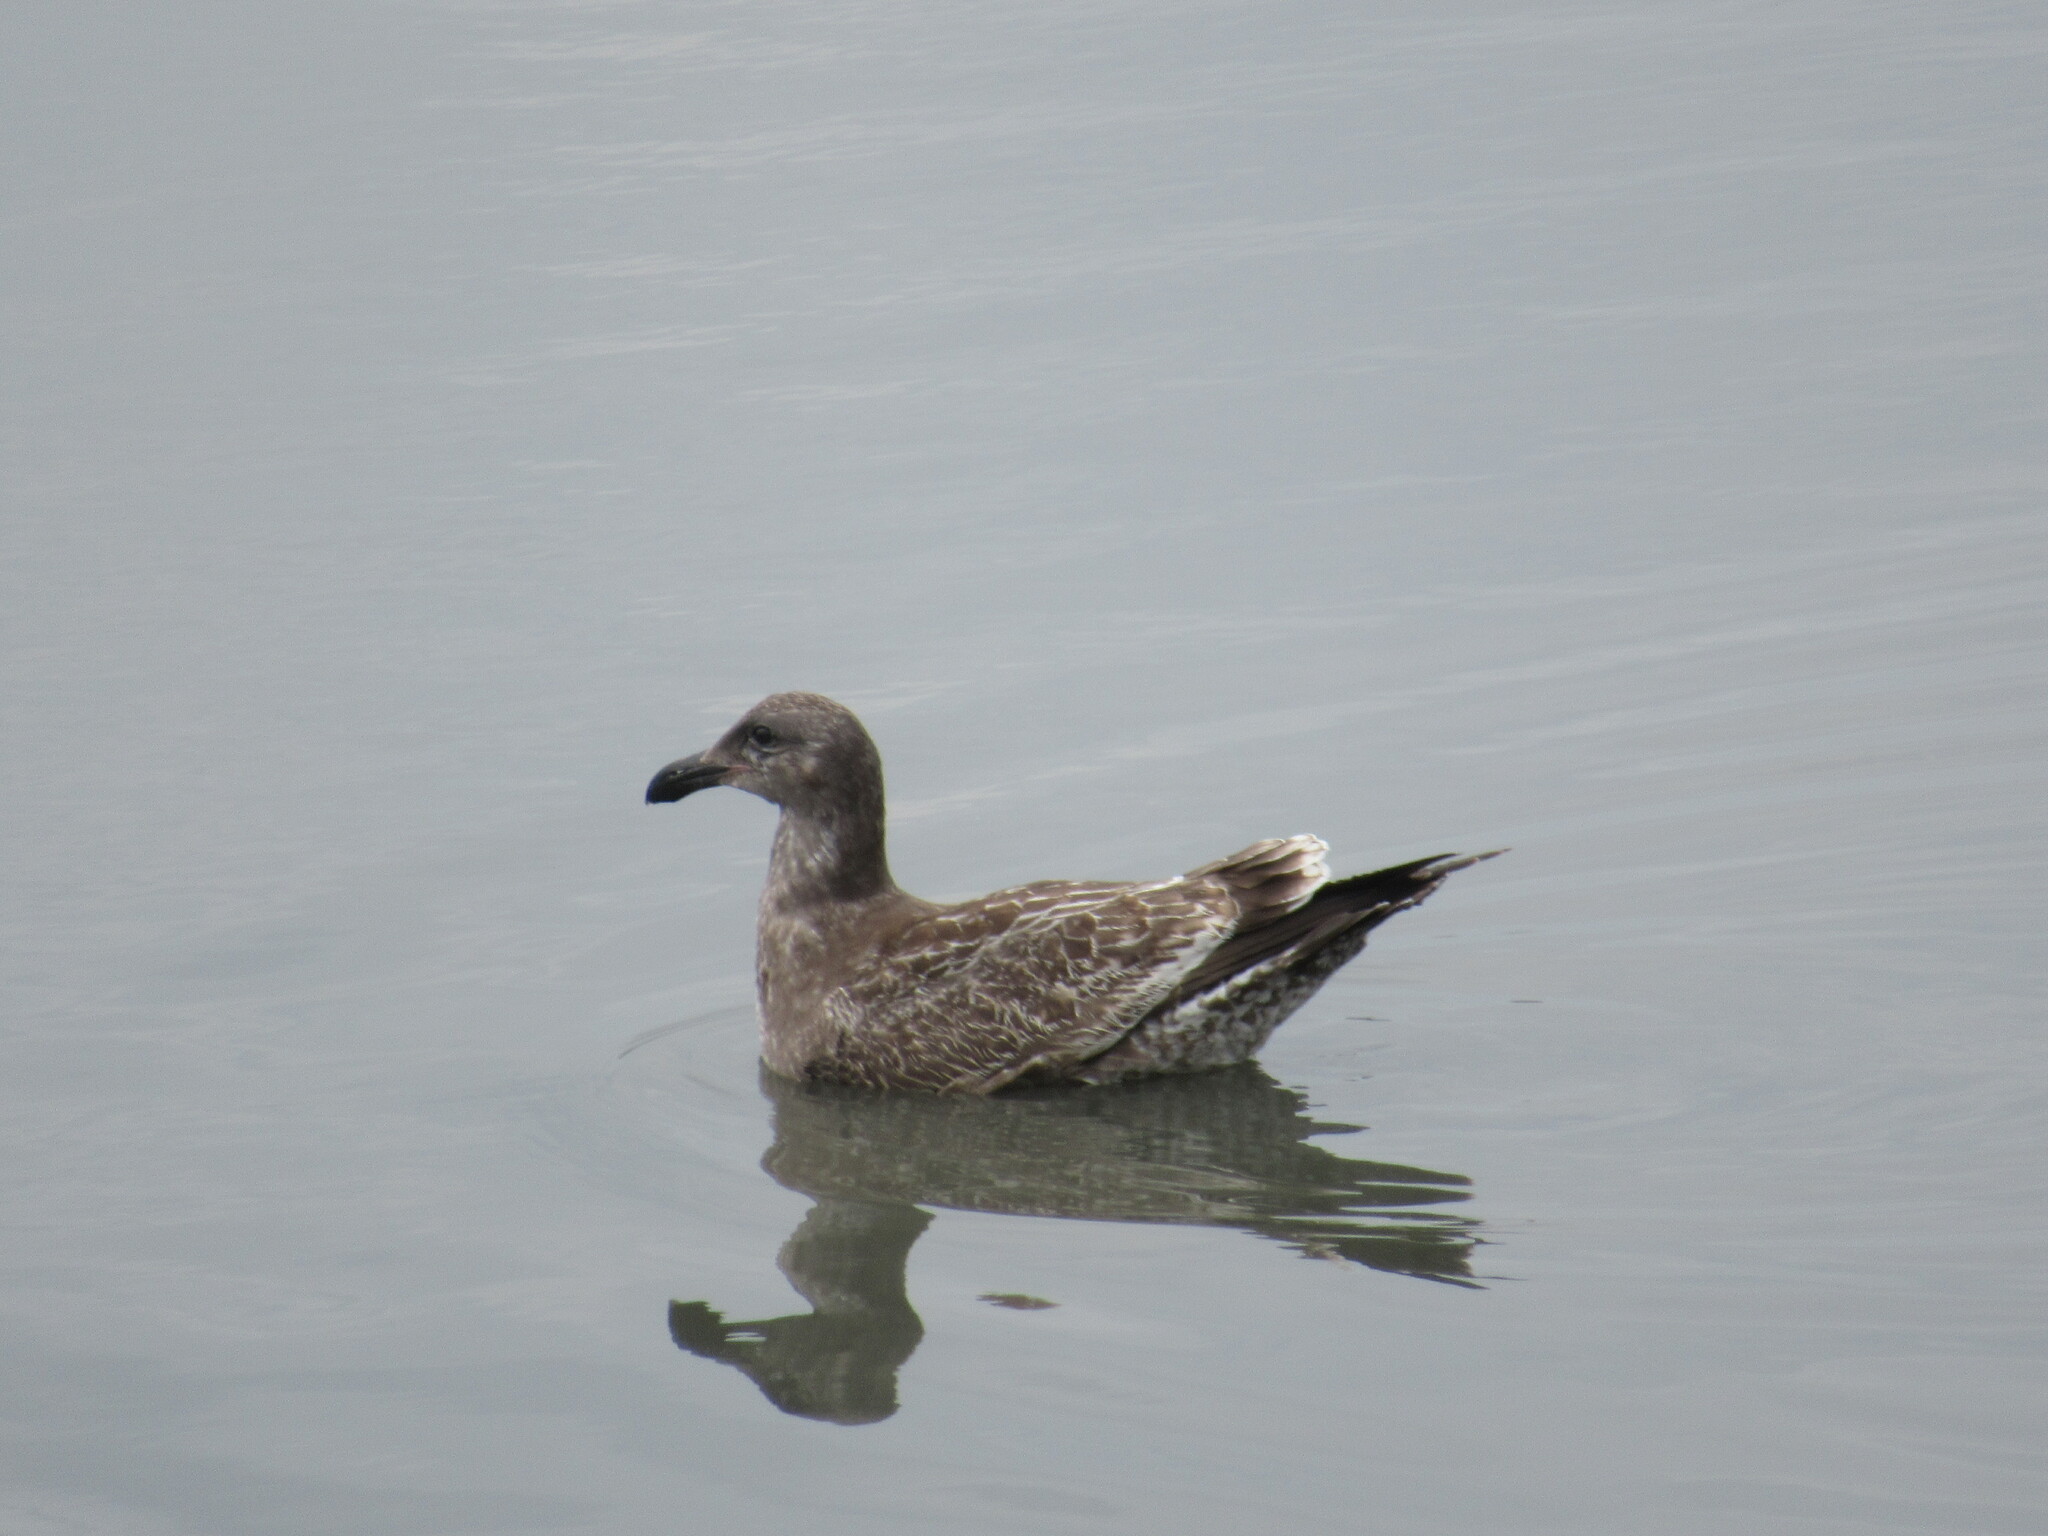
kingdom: Animalia
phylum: Chordata
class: Aves
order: Charadriiformes
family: Laridae
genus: Larus
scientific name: Larus occidentalis
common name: Western gull
